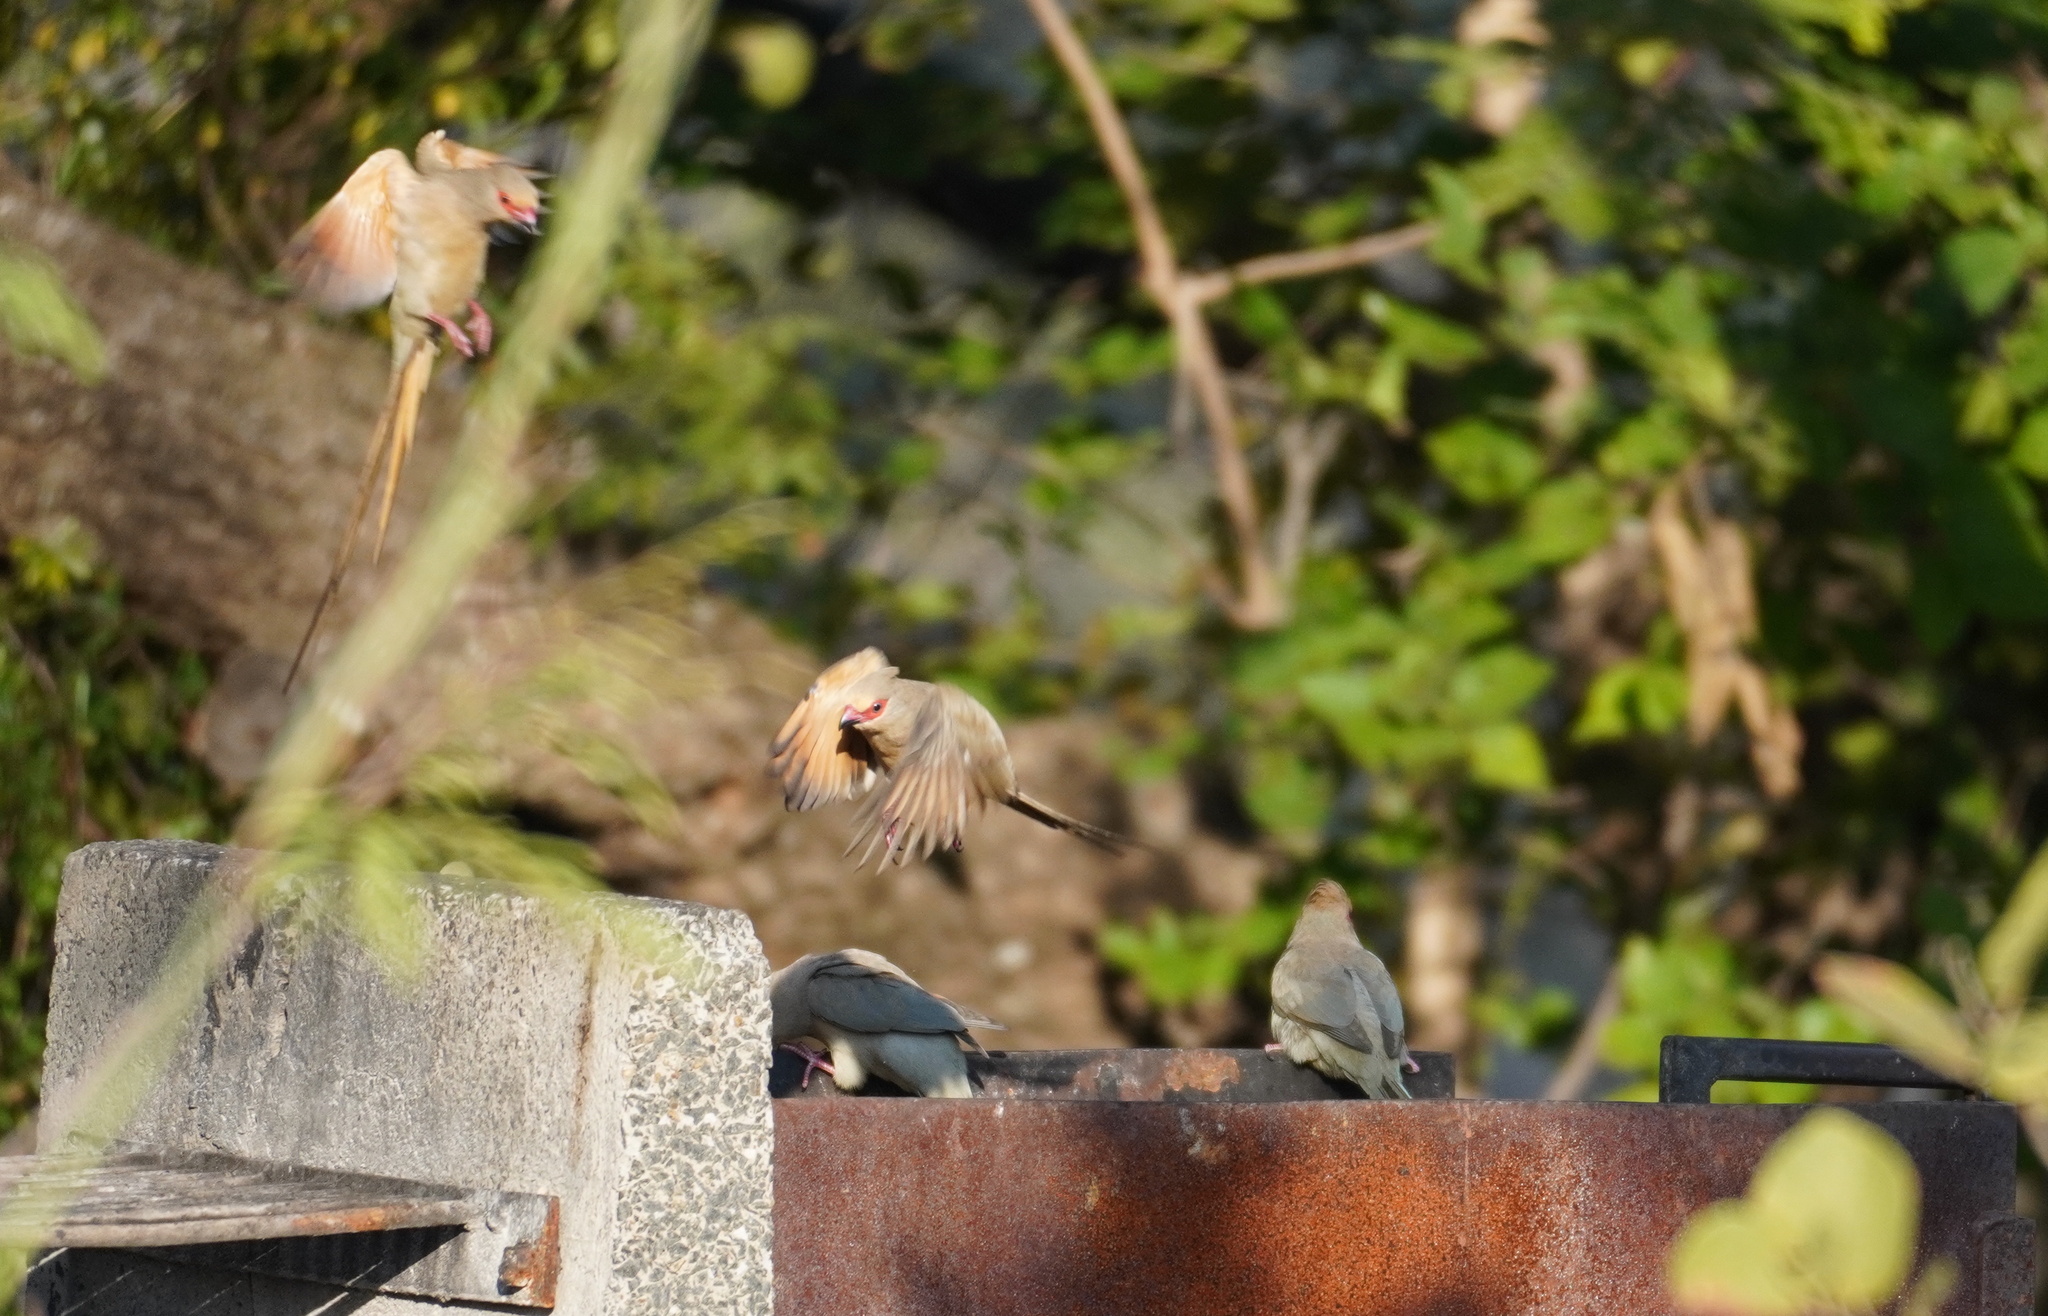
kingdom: Animalia
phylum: Chordata
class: Aves
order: Coliiformes
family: Coliidae
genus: Urocolius
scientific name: Urocolius indicus
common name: Red-faced mousebird
